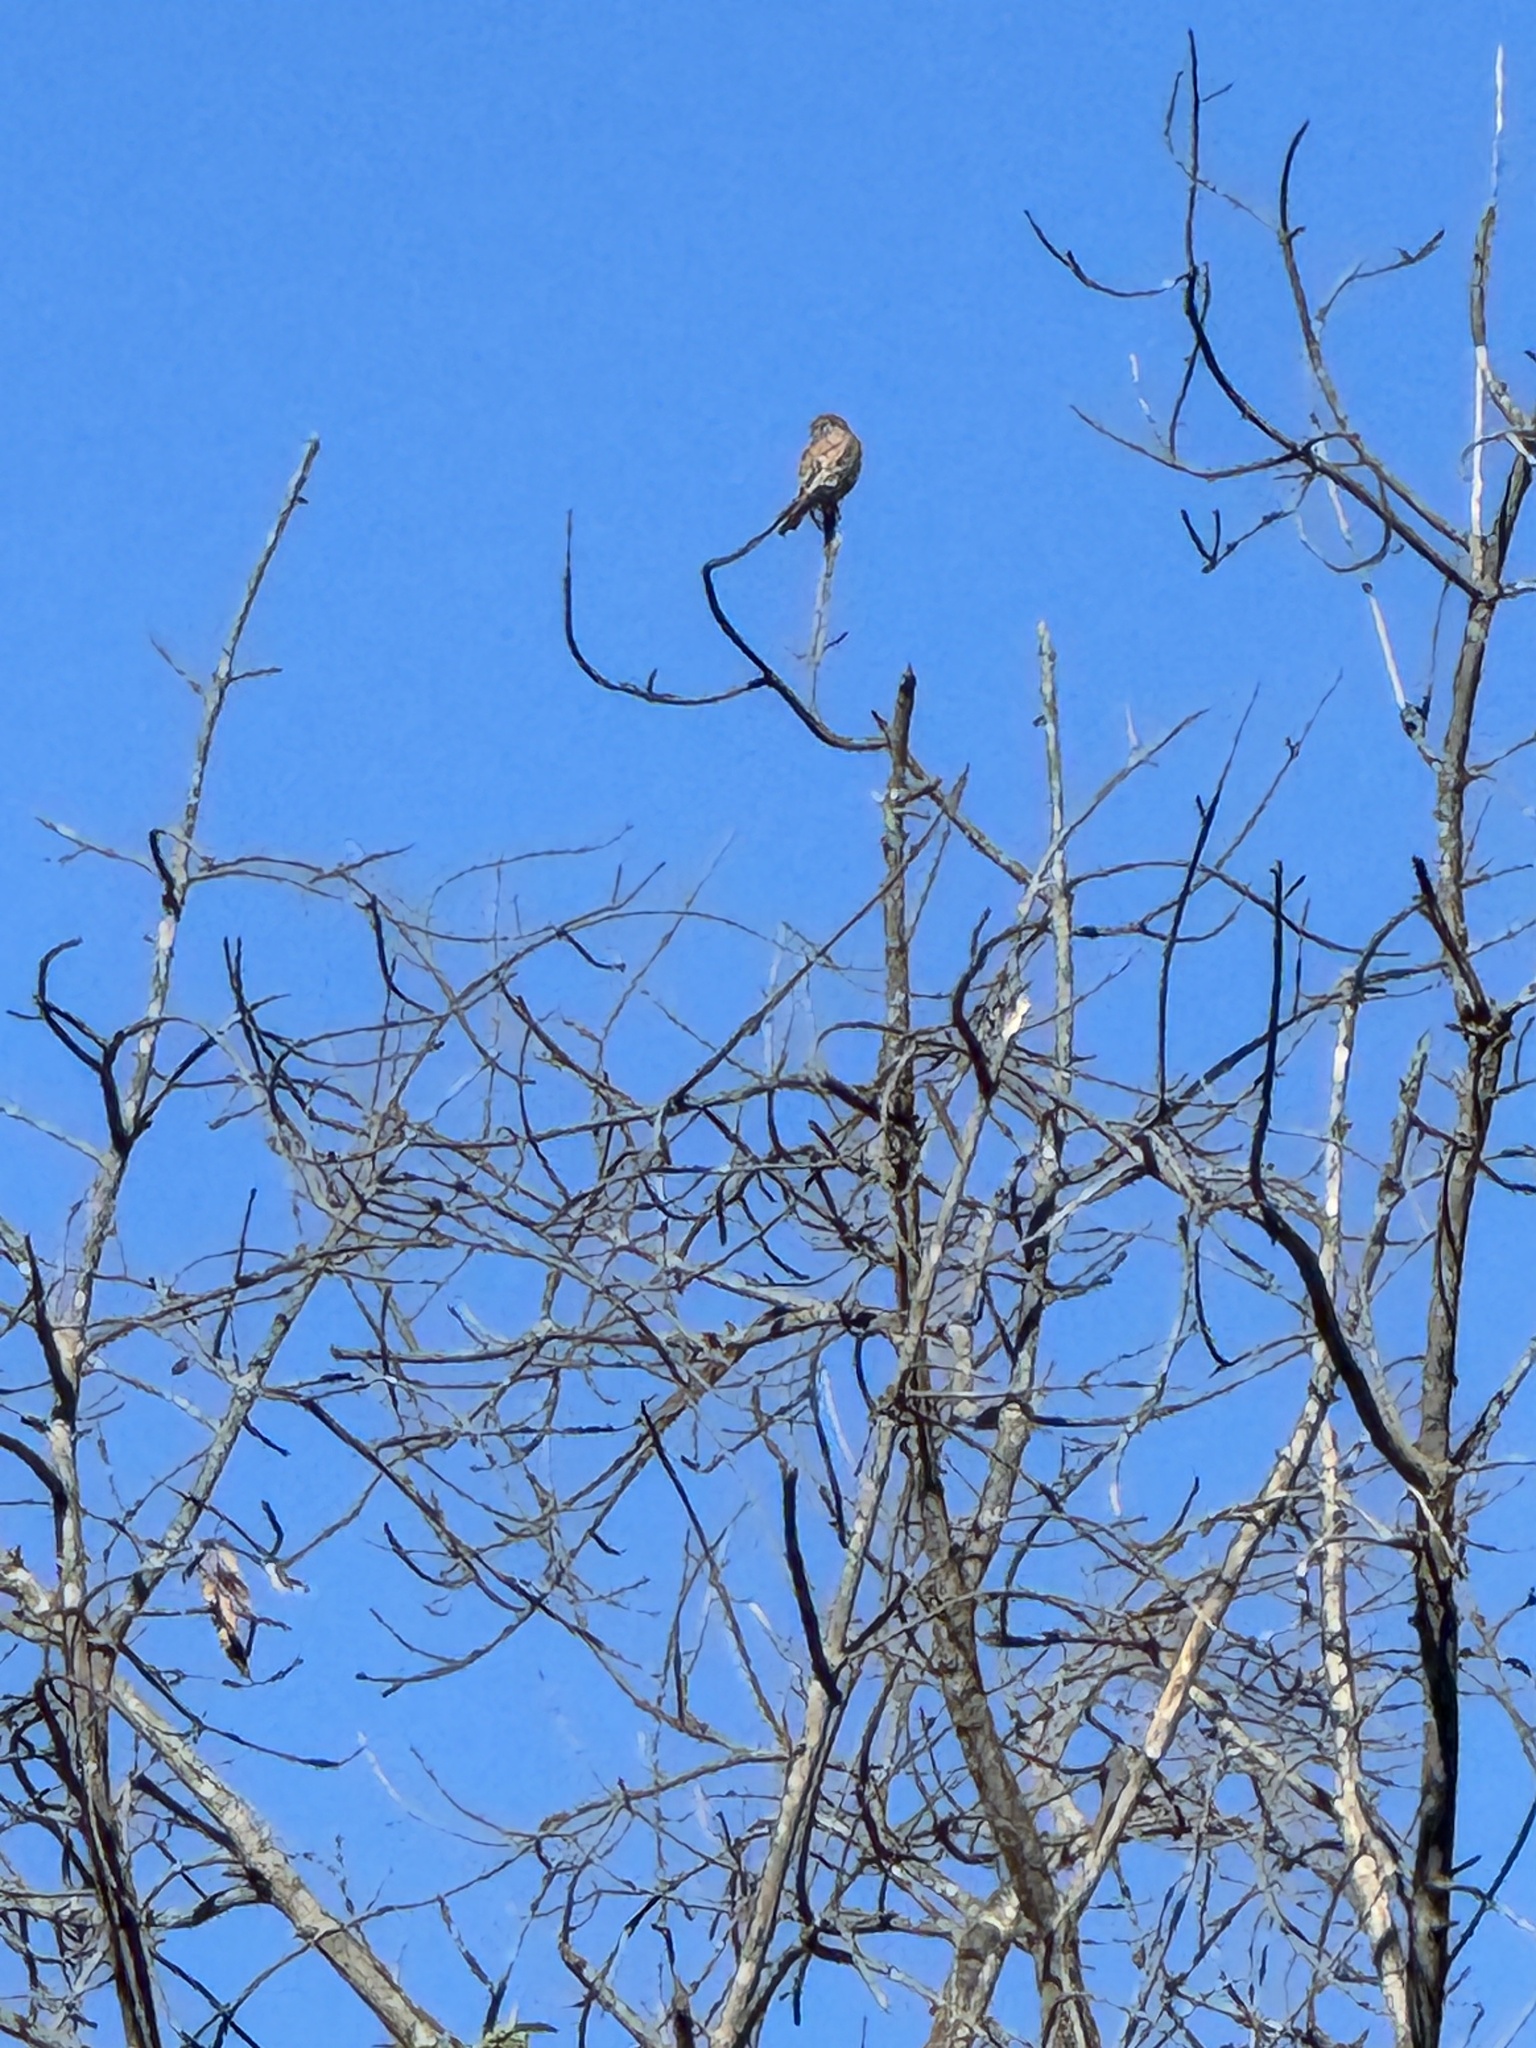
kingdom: Animalia
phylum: Chordata
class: Aves
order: Falconiformes
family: Falconidae
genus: Falco
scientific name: Falco sparverius
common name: American kestrel
